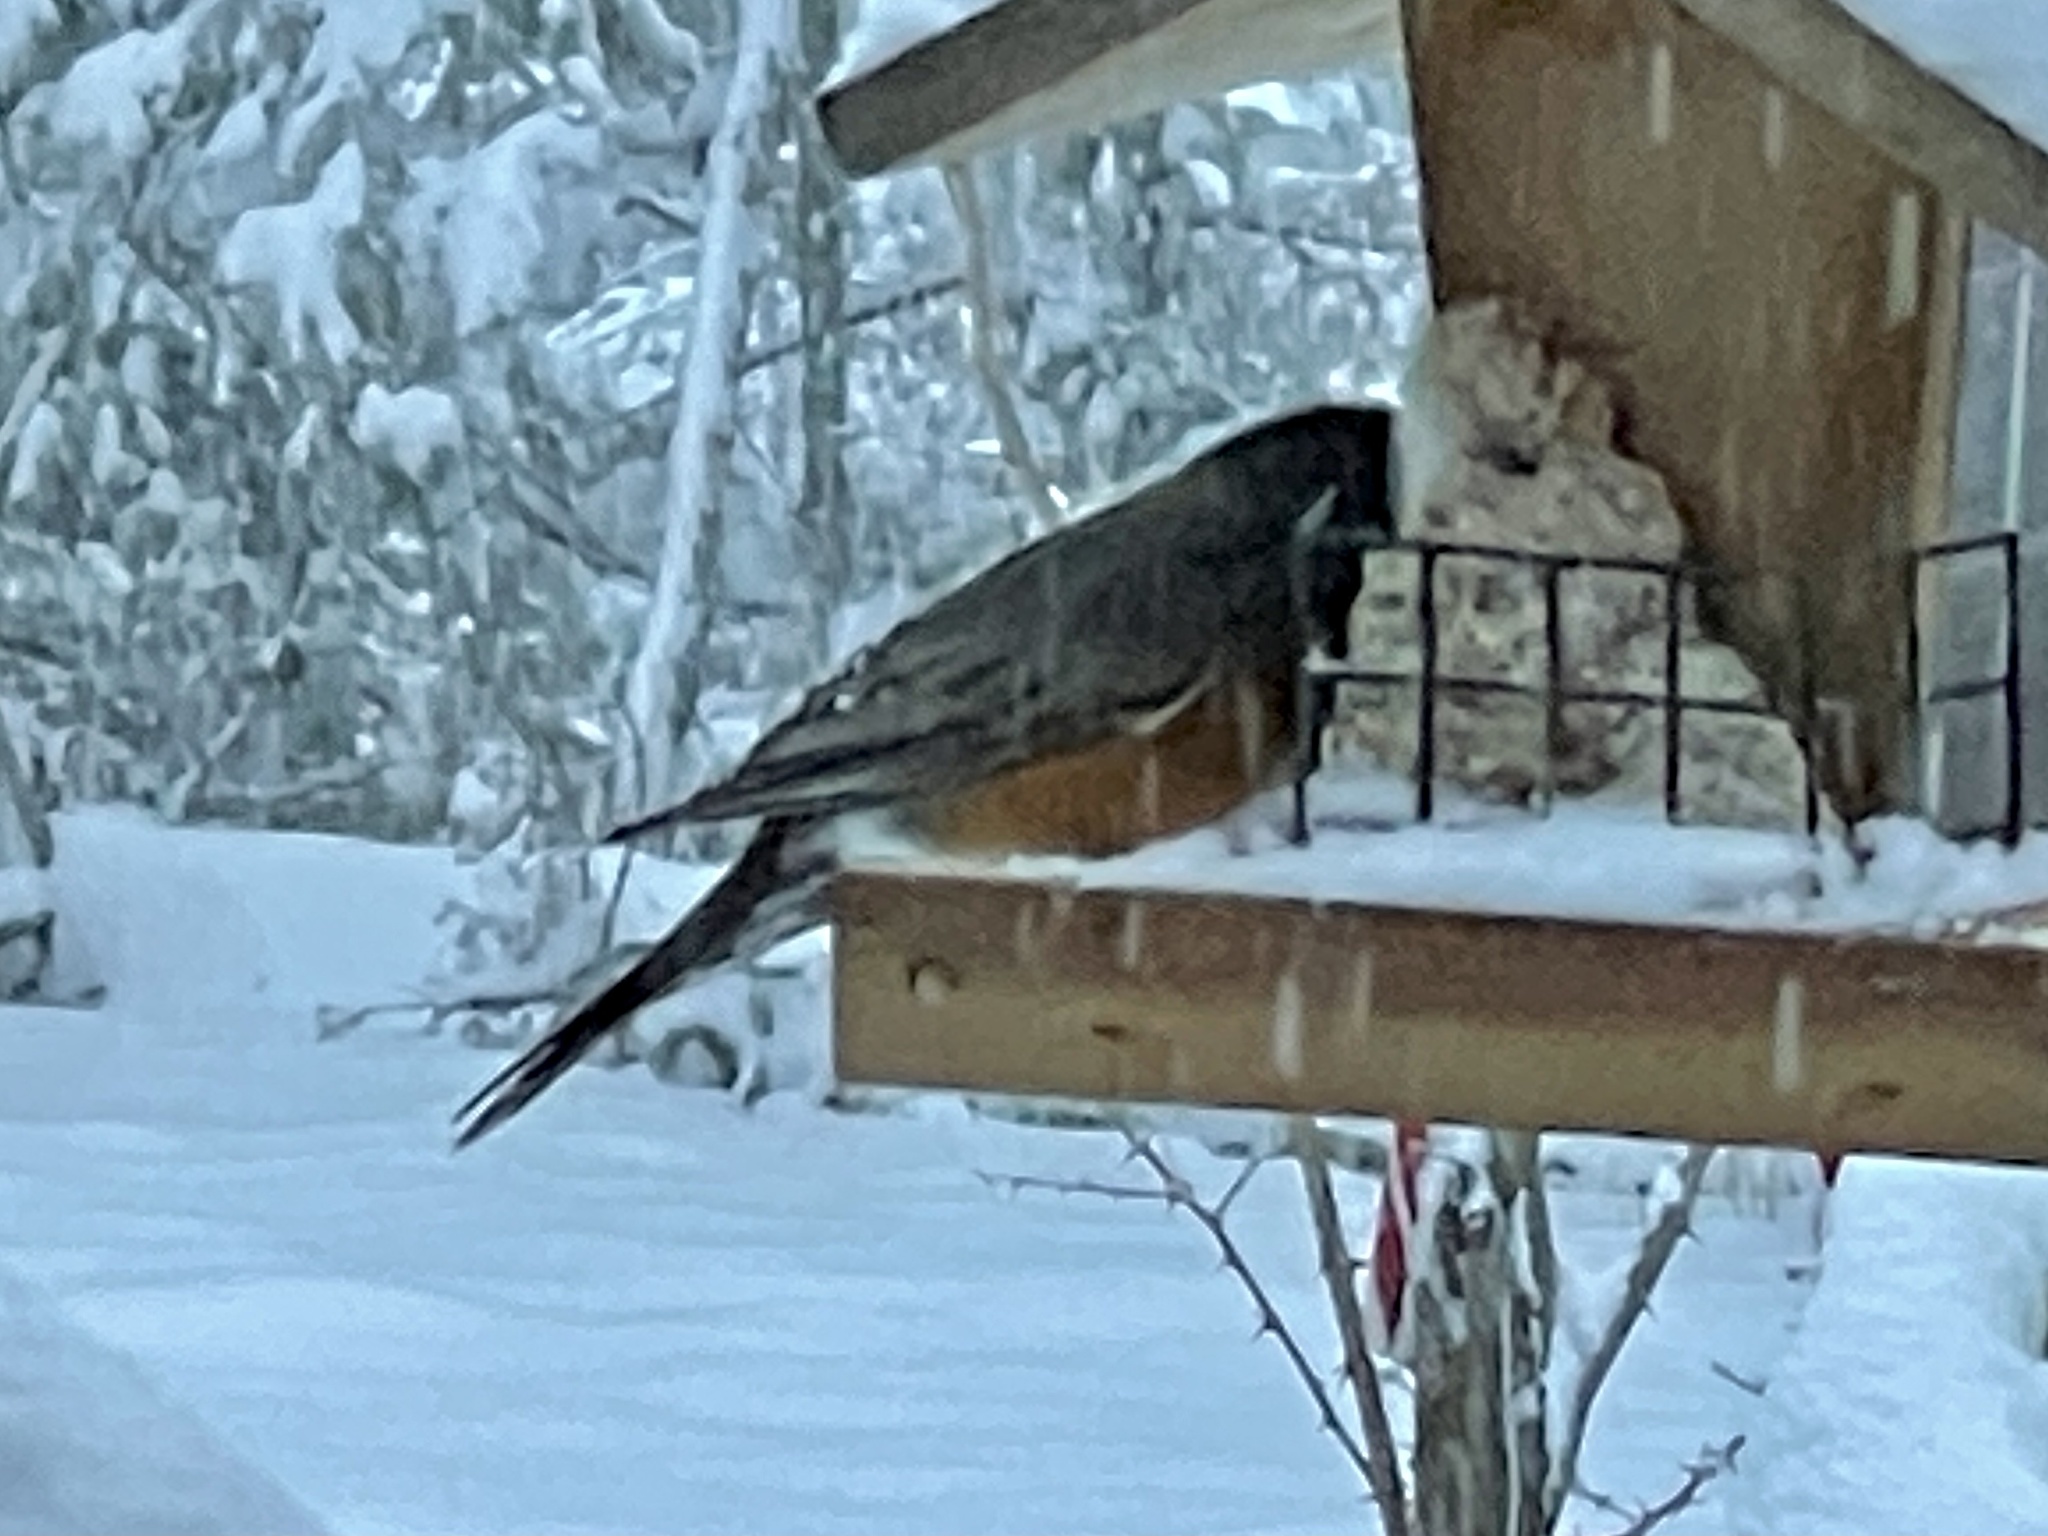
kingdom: Animalia
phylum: Chordata
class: Aves
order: Passeriformes
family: Turdidae
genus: Turdus
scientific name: Turdus migratorius
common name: American robin
